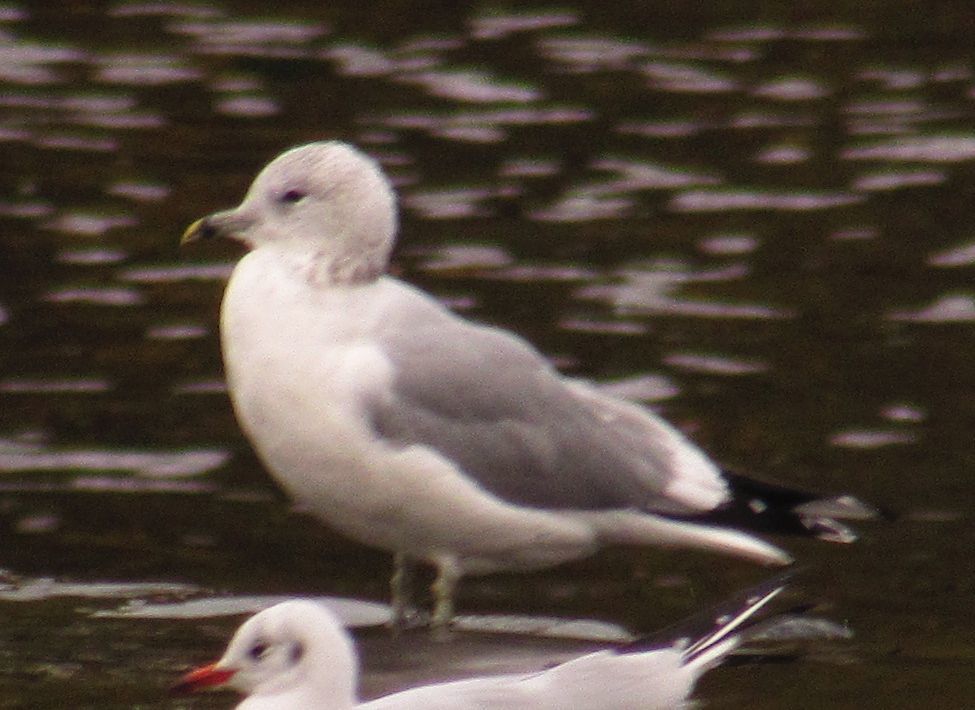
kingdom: Animalia
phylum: Chordata
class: Aves
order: Charadriiformes
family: Laridae
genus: Larus
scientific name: Larus canus
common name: Mew gull
